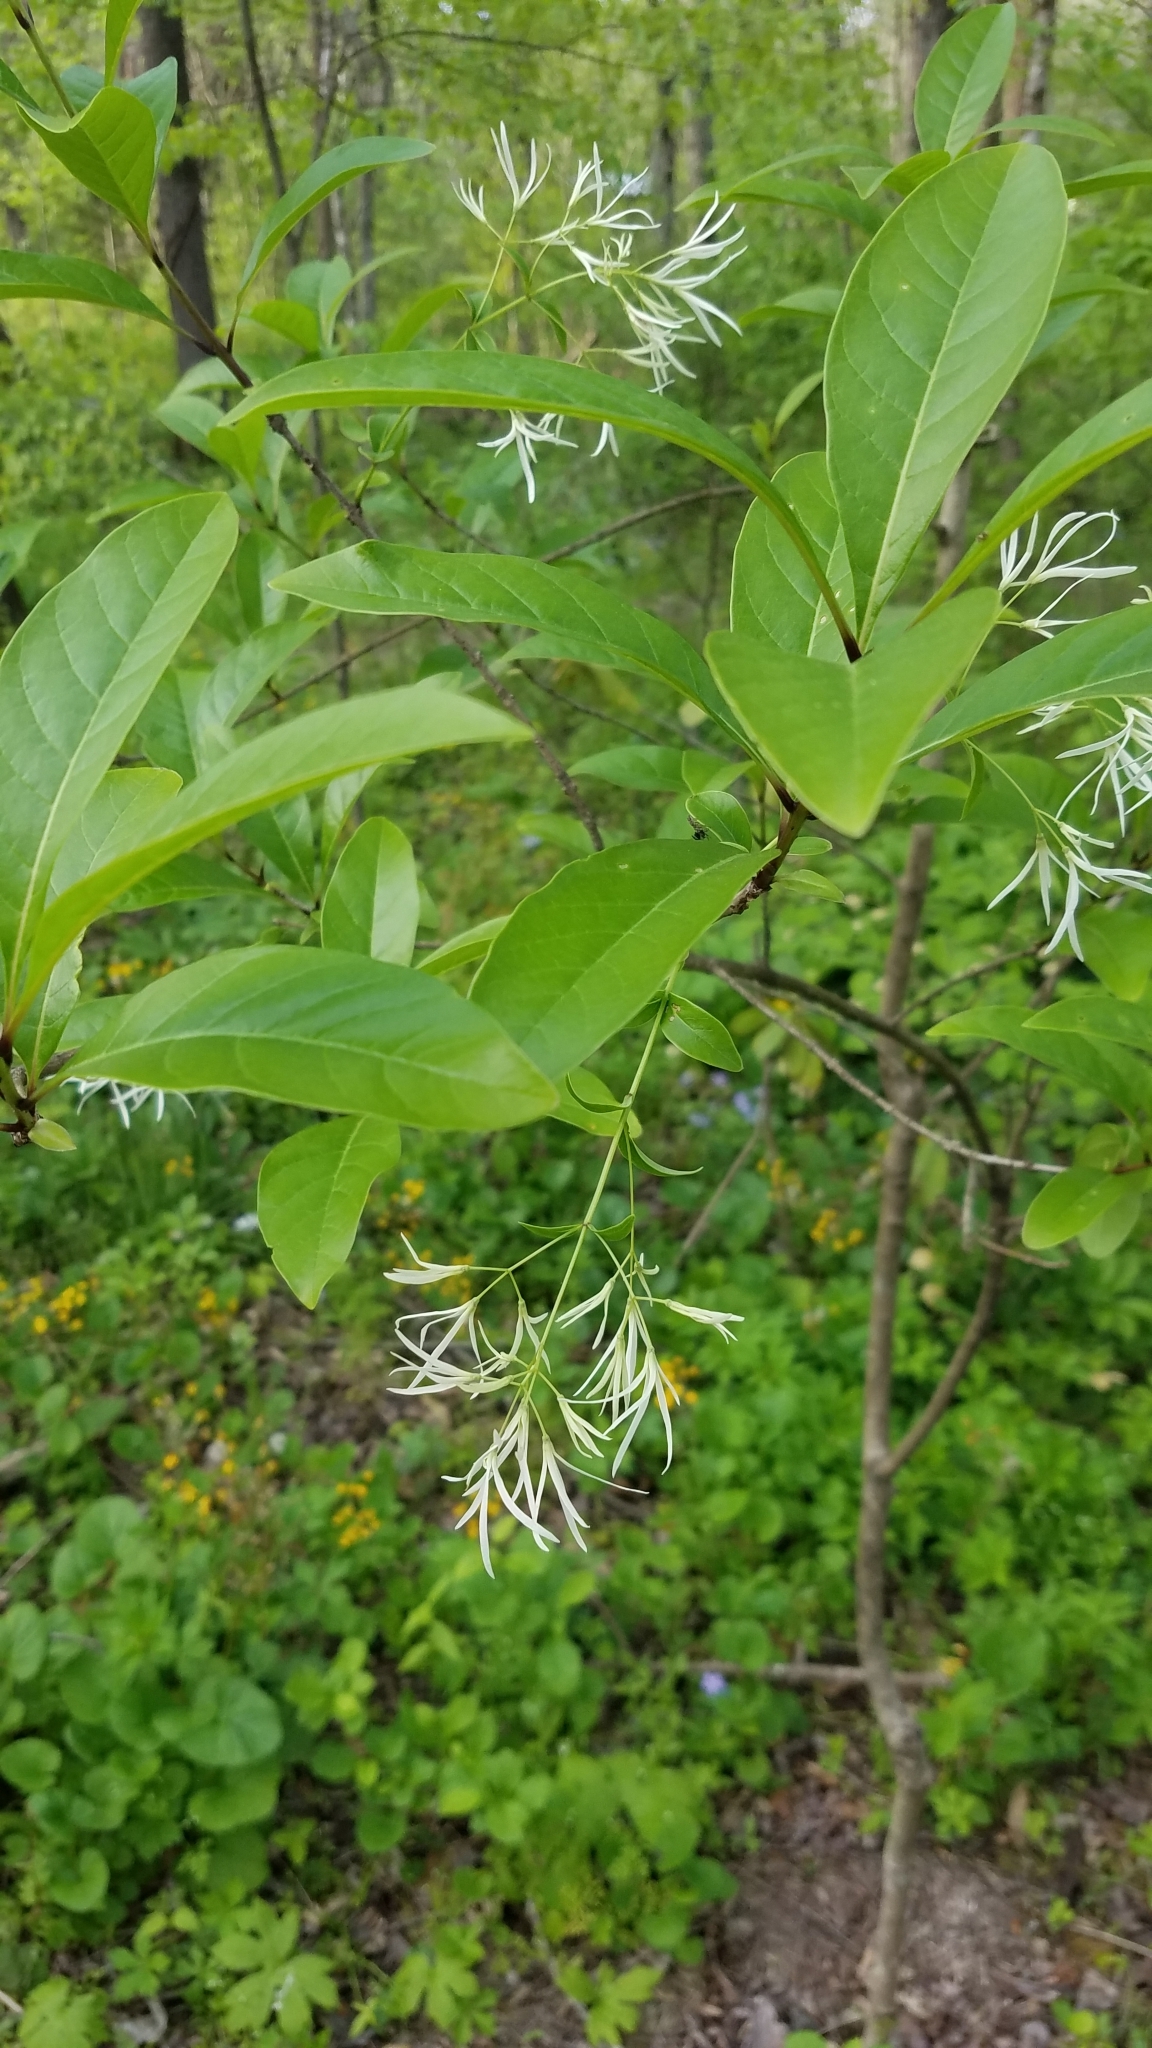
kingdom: Plantae
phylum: Tracheophyta
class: Magnoliopsida
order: Lamiales
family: Oleaceae
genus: Chionanthus
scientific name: Chionanthus virginicus
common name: American fringetree
